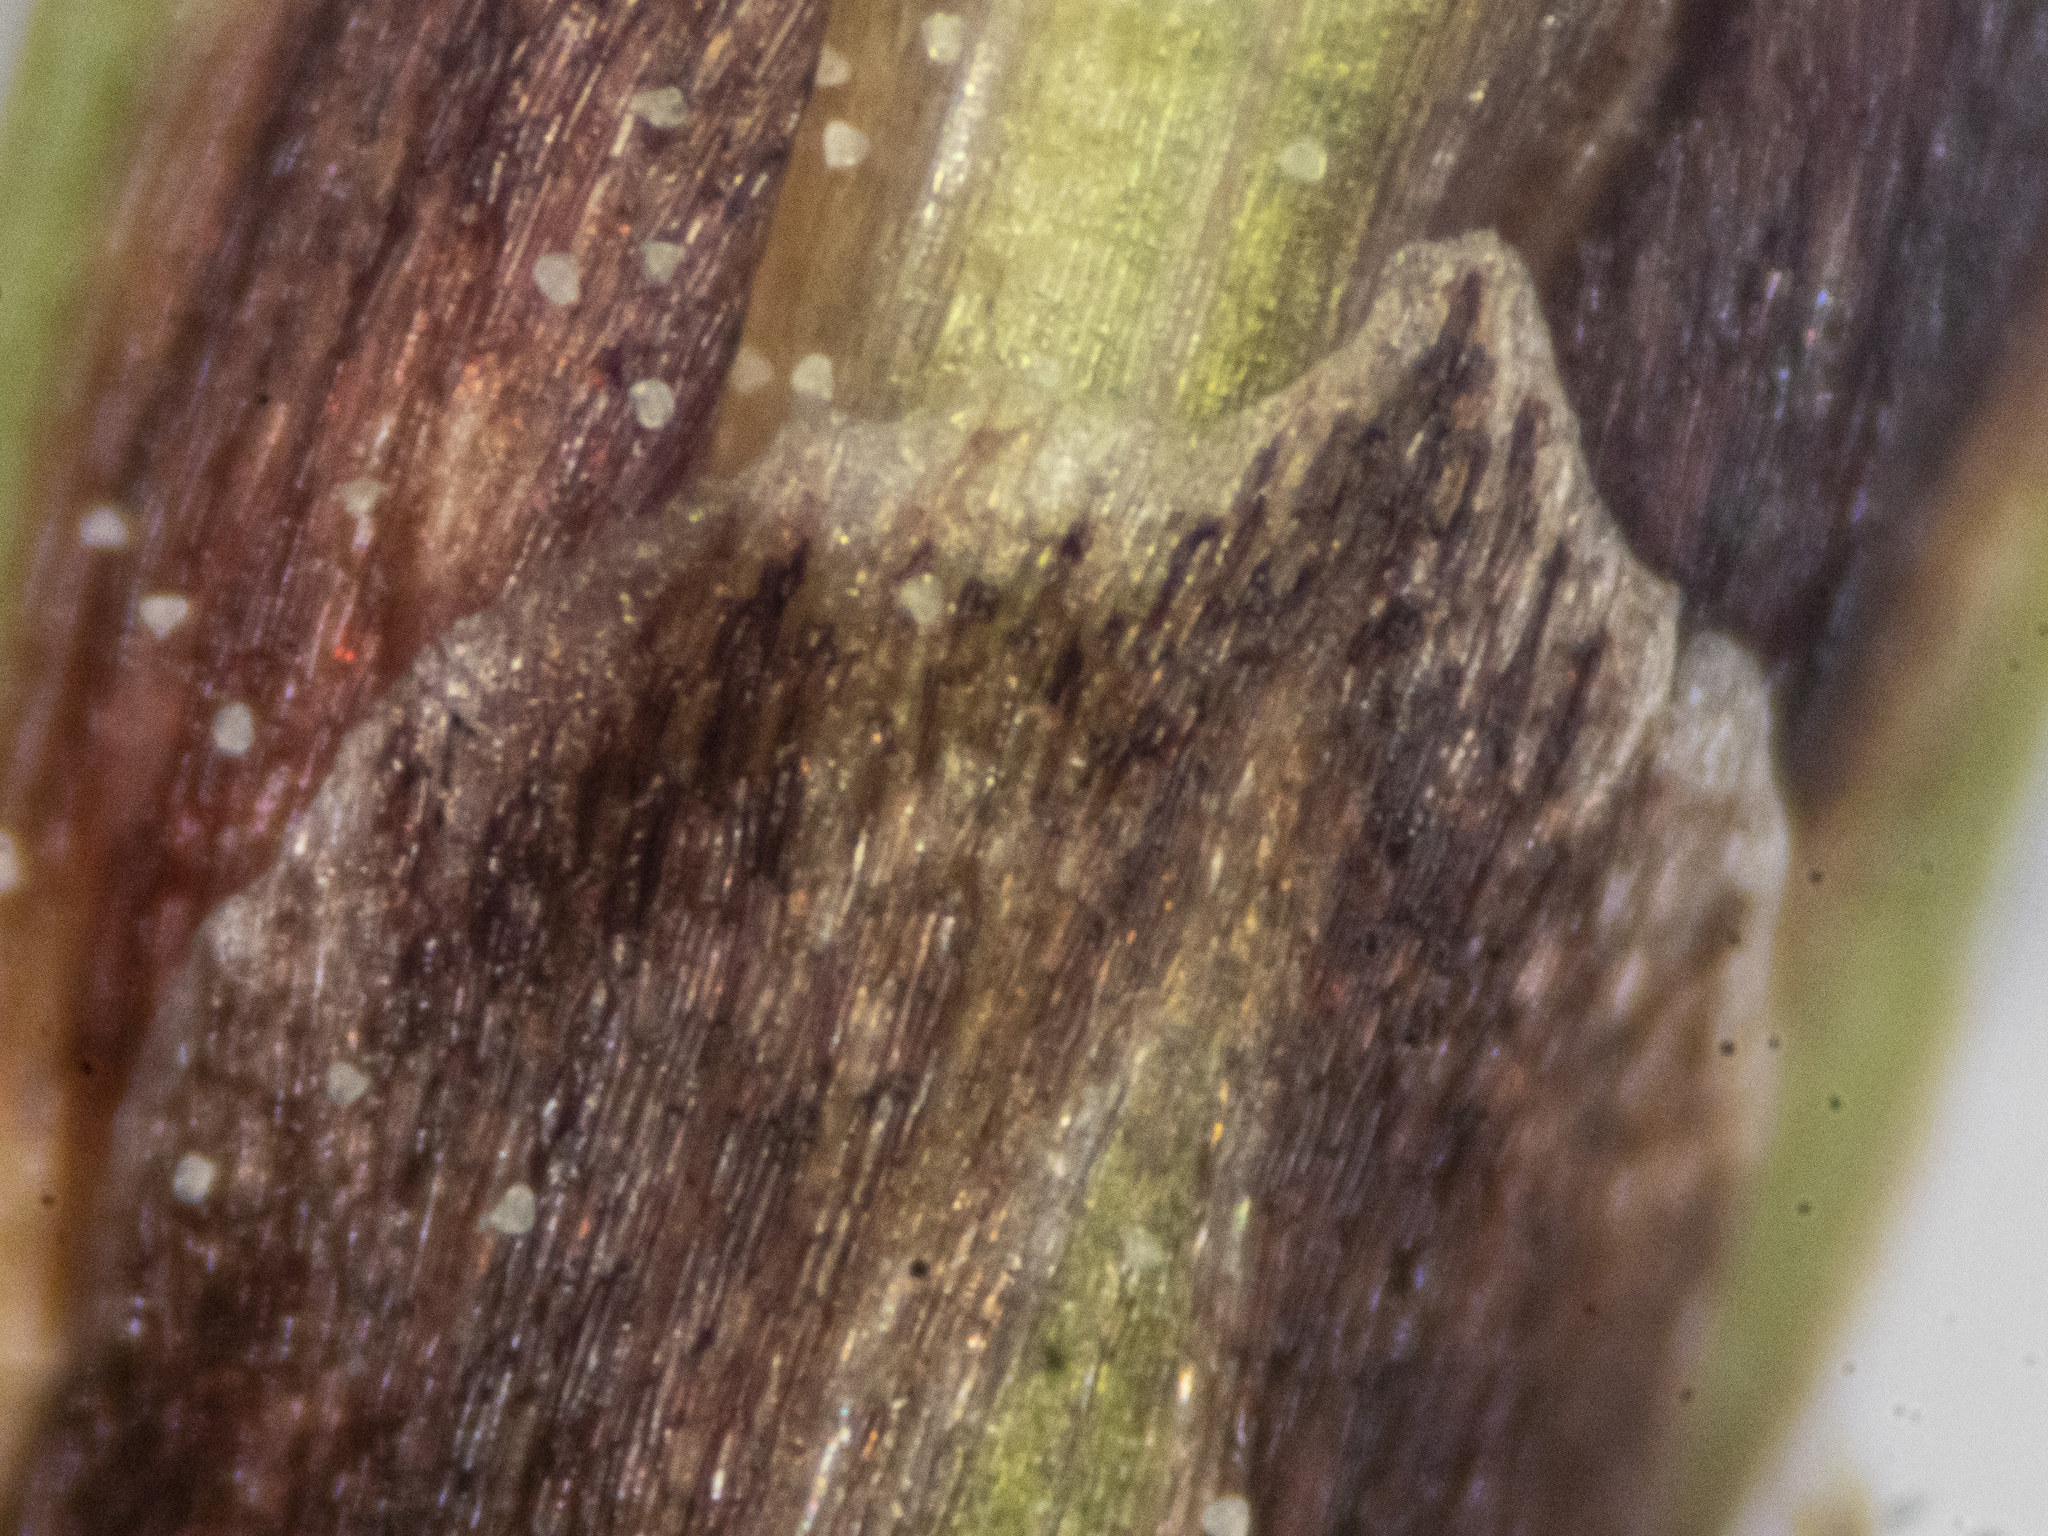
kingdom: Plantae
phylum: Tracheophyta
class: Liliopsida
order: Poales
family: Cyperaceae
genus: Carex
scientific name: Carex digitata
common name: Fingered sedge
